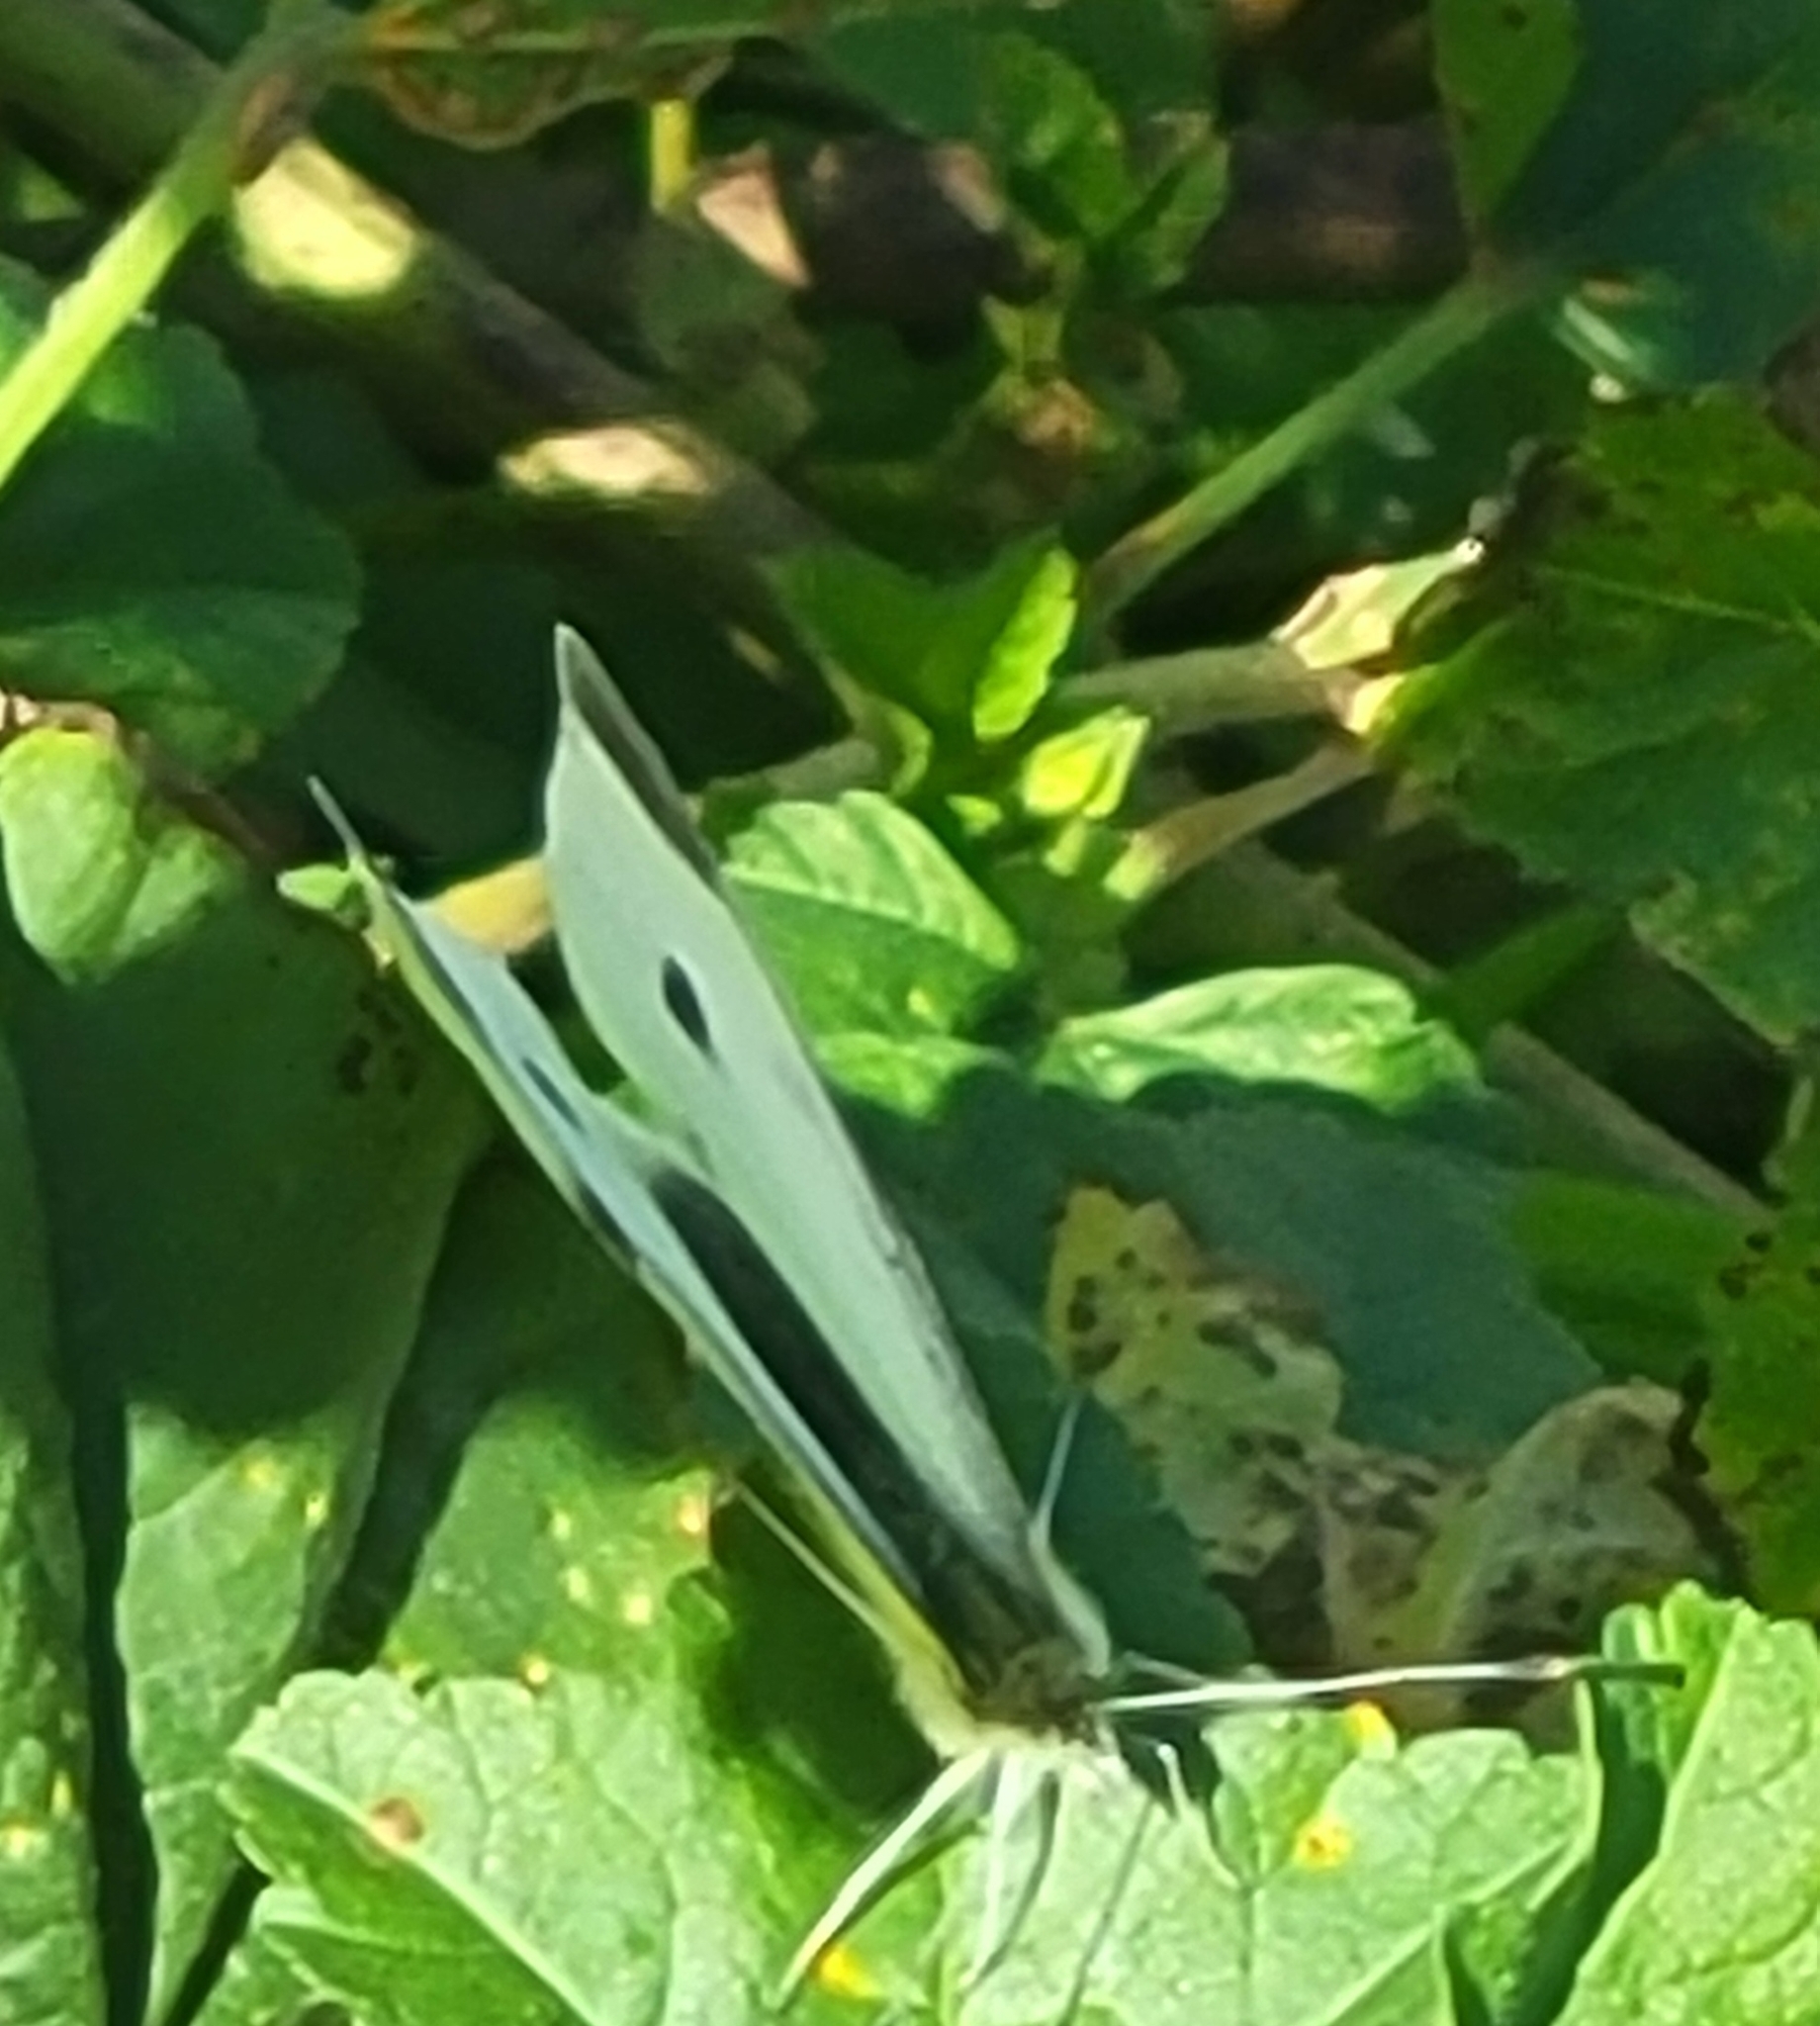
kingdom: Animalia
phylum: Arthropoda
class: Insecta
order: Lepidoptera
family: Pieridae
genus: Pieris
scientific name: Pieris rapae
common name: Small white
